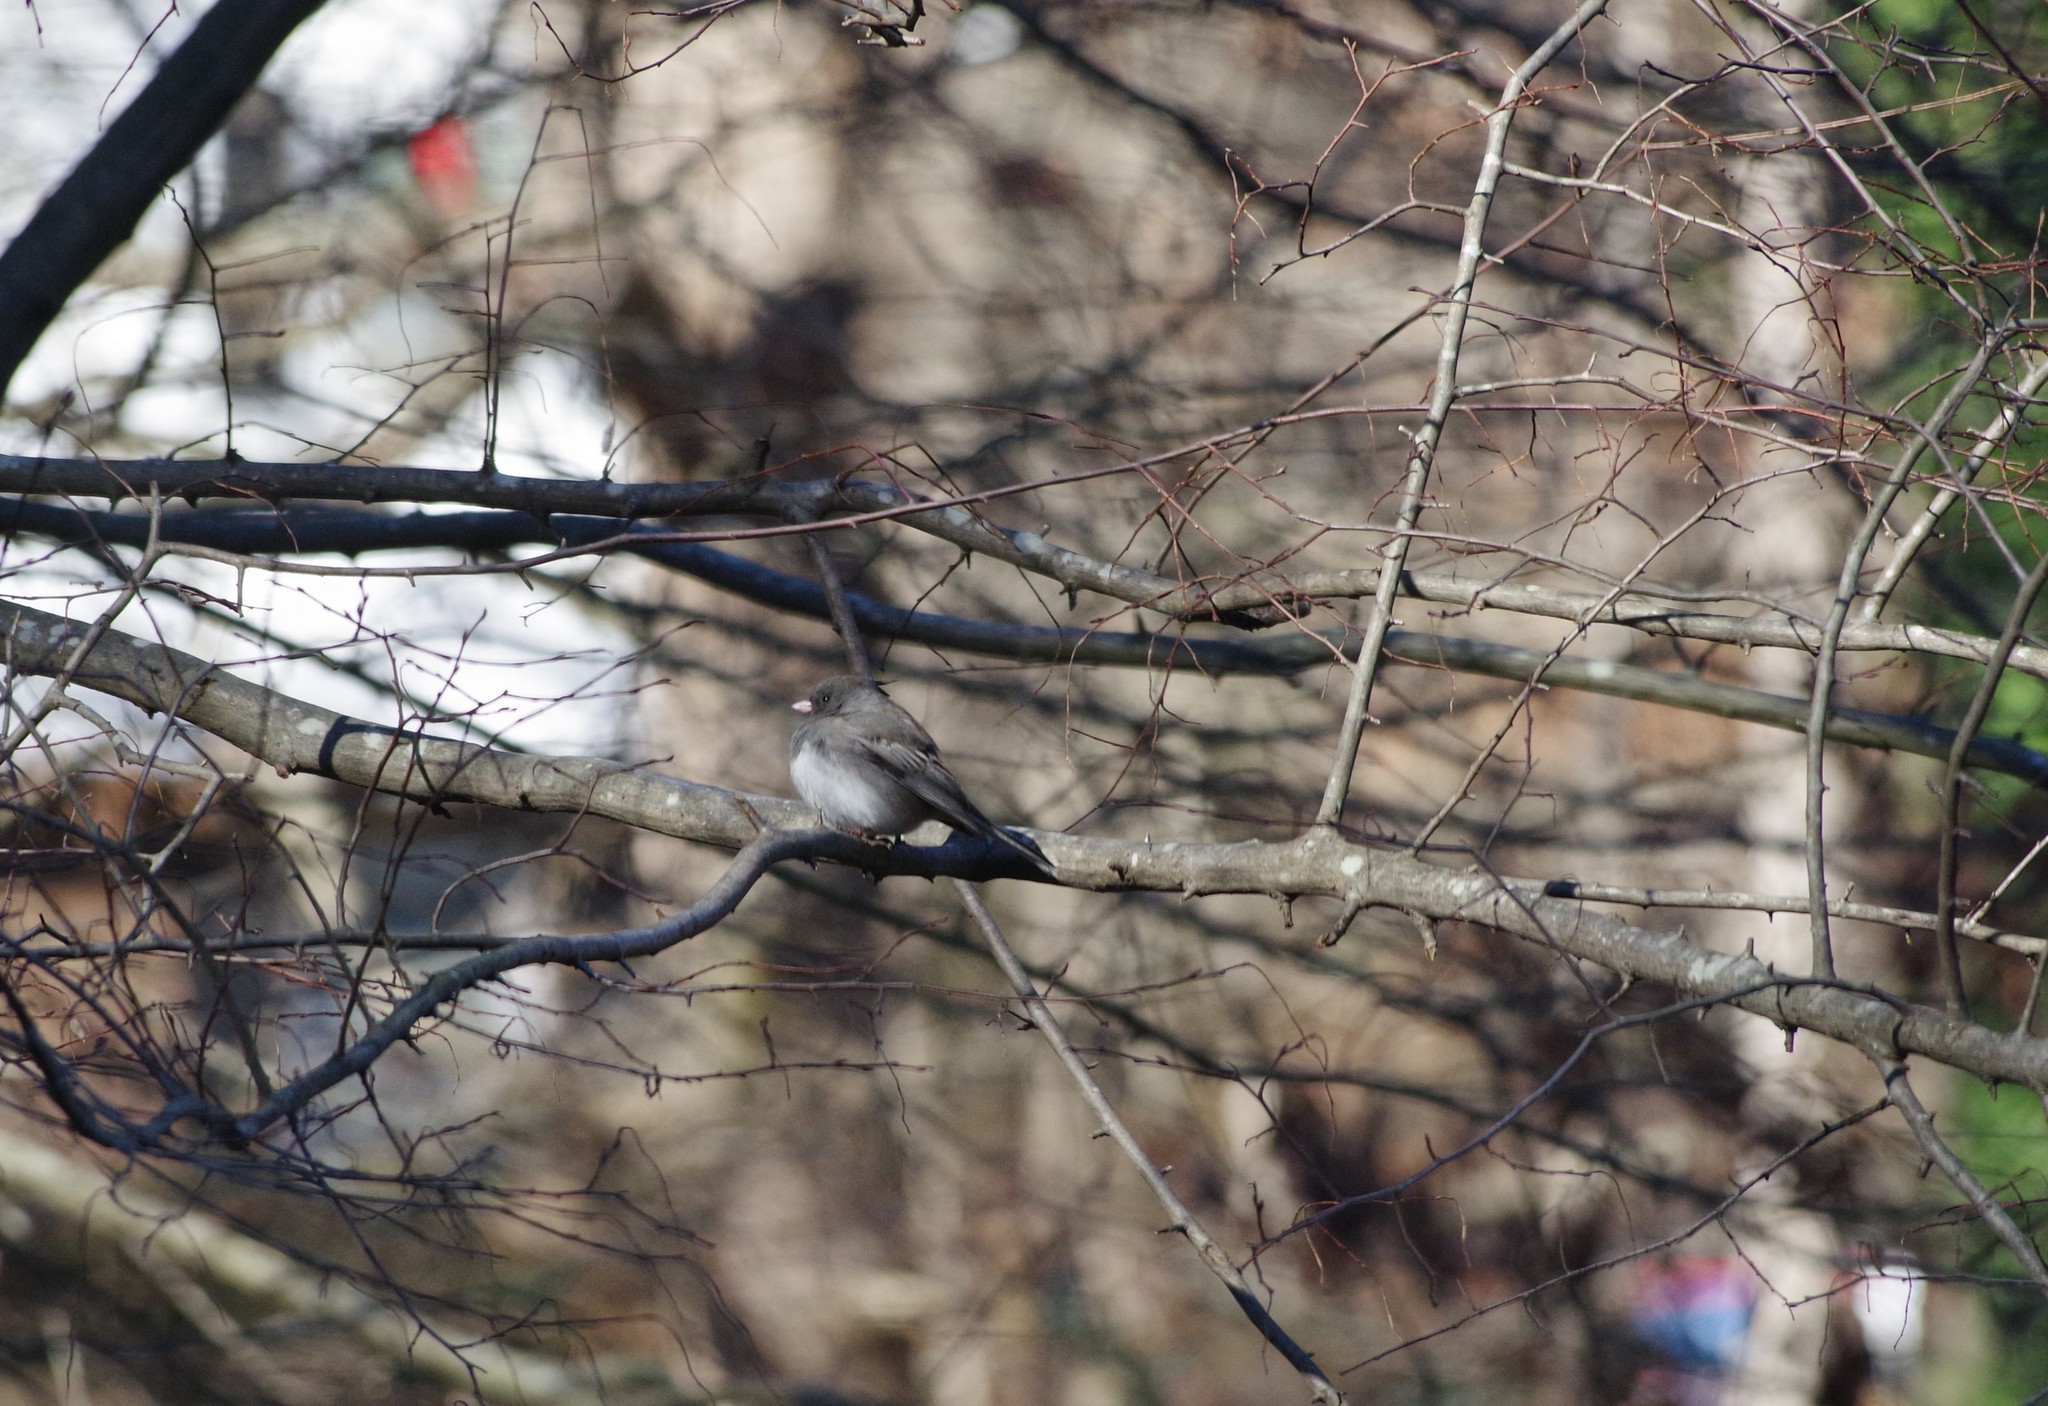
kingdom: Animalia
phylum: Chordata
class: Aves
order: Passeriformes
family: Passerellidae
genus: Junco
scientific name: Junco hyemalis
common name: Dark-eyed junco
